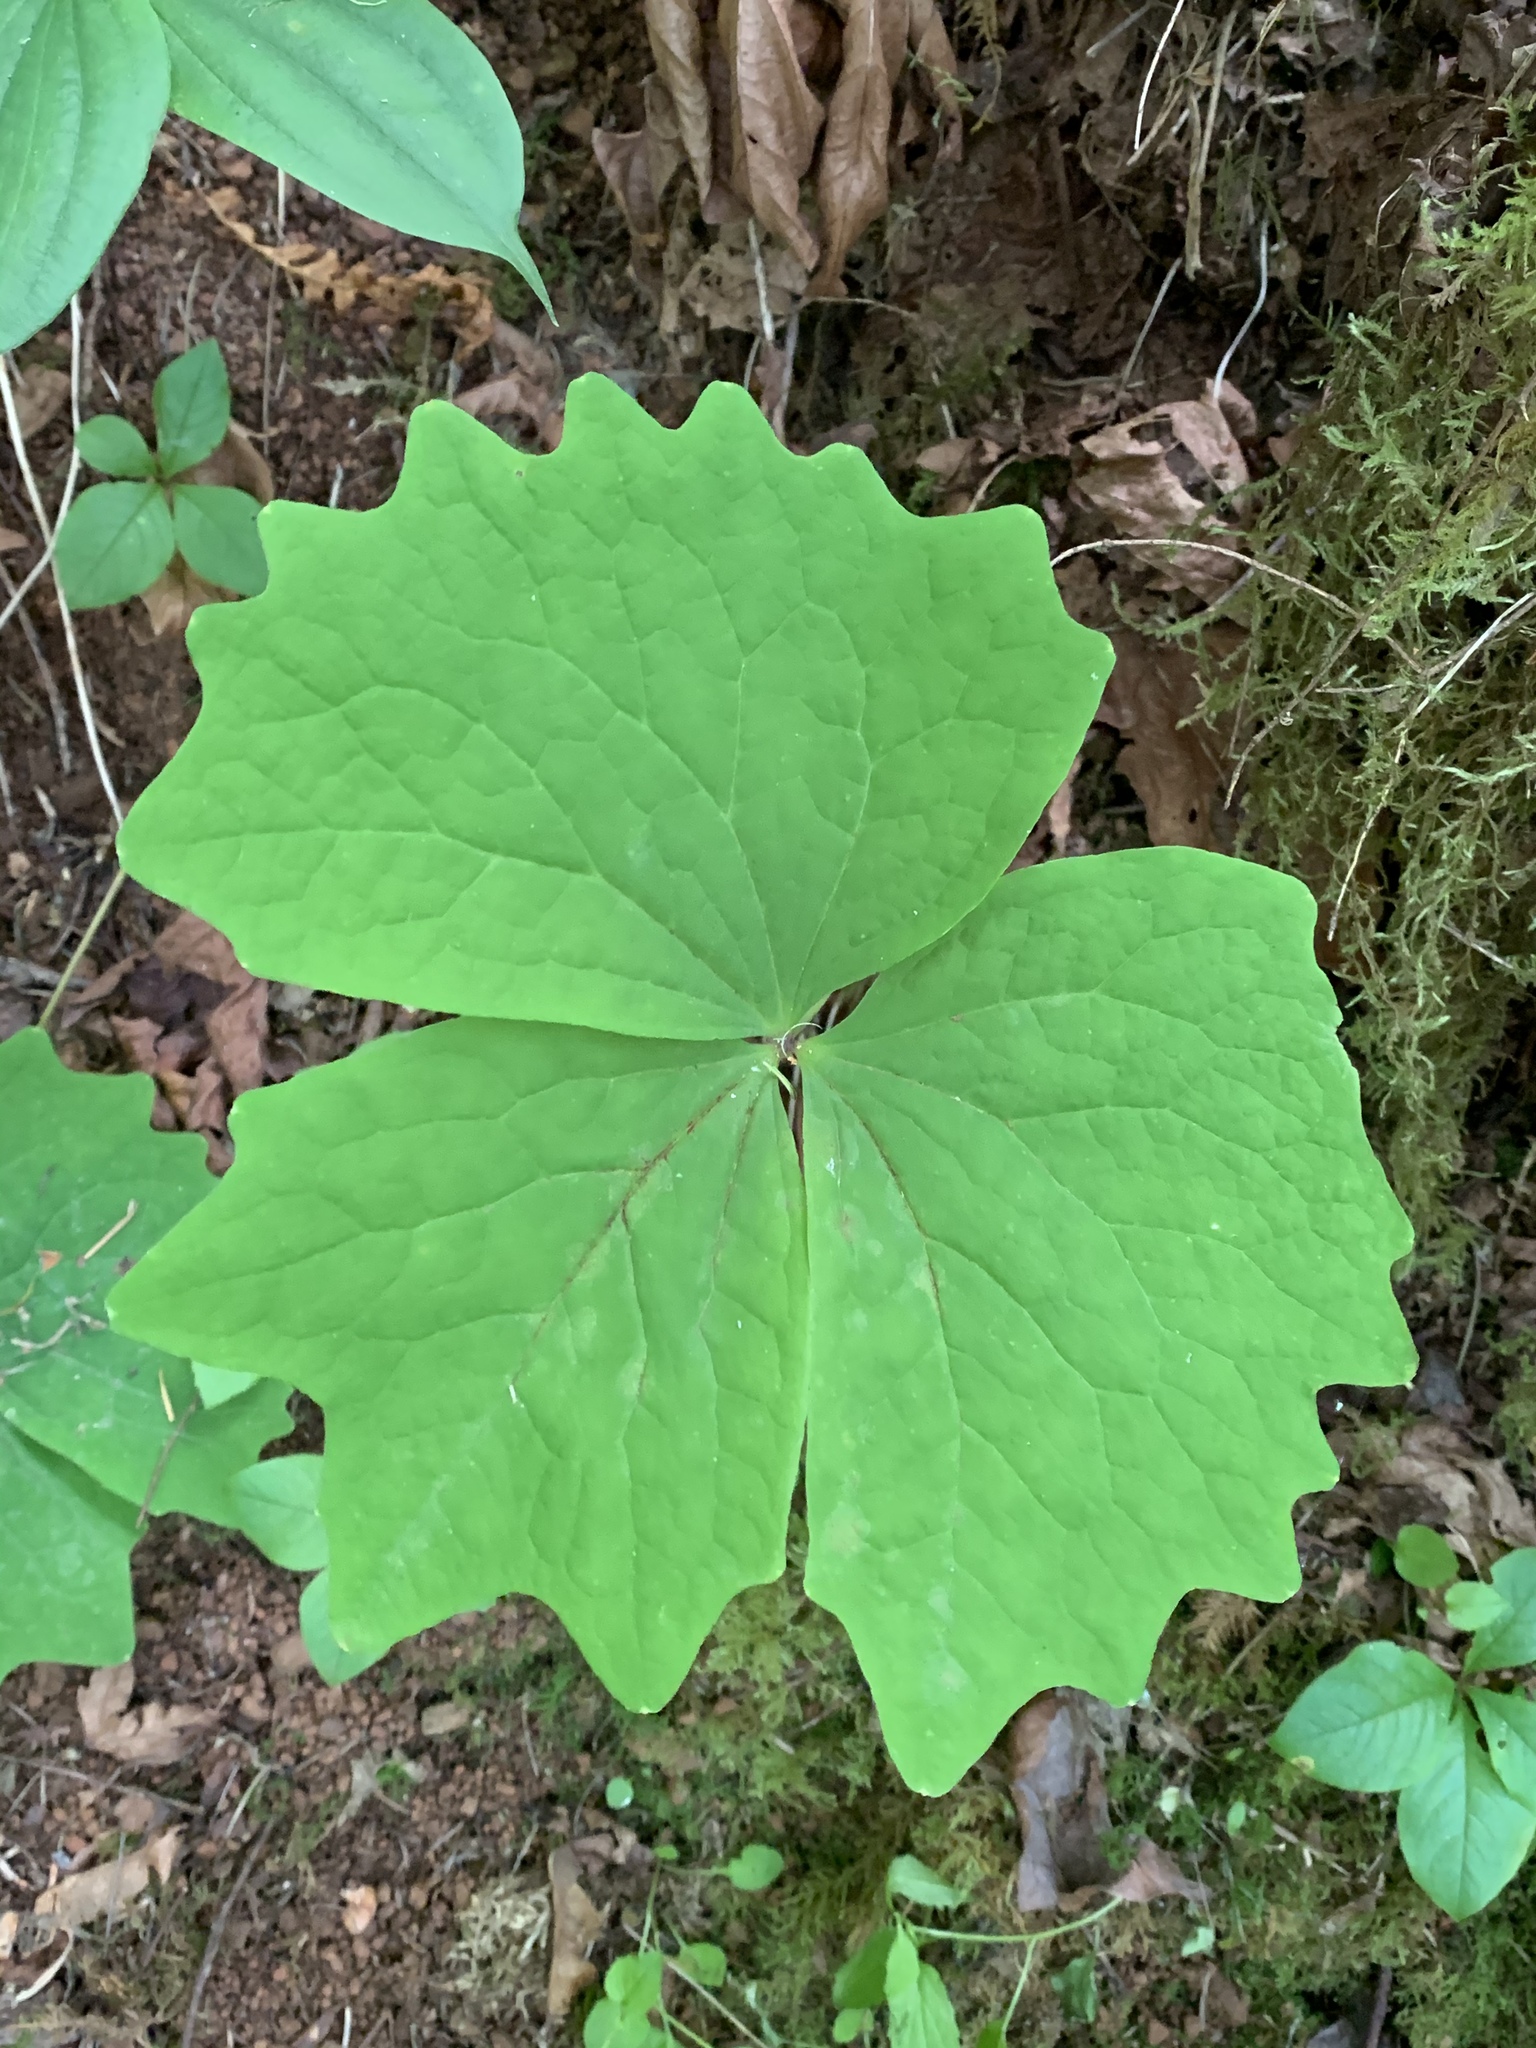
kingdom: Plantae
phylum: Tracheophyta
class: Magnoliopsida
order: Ranunculales
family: Berberidaceae
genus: Achlys
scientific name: Achlys triphylla
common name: Vanilla-leaf
